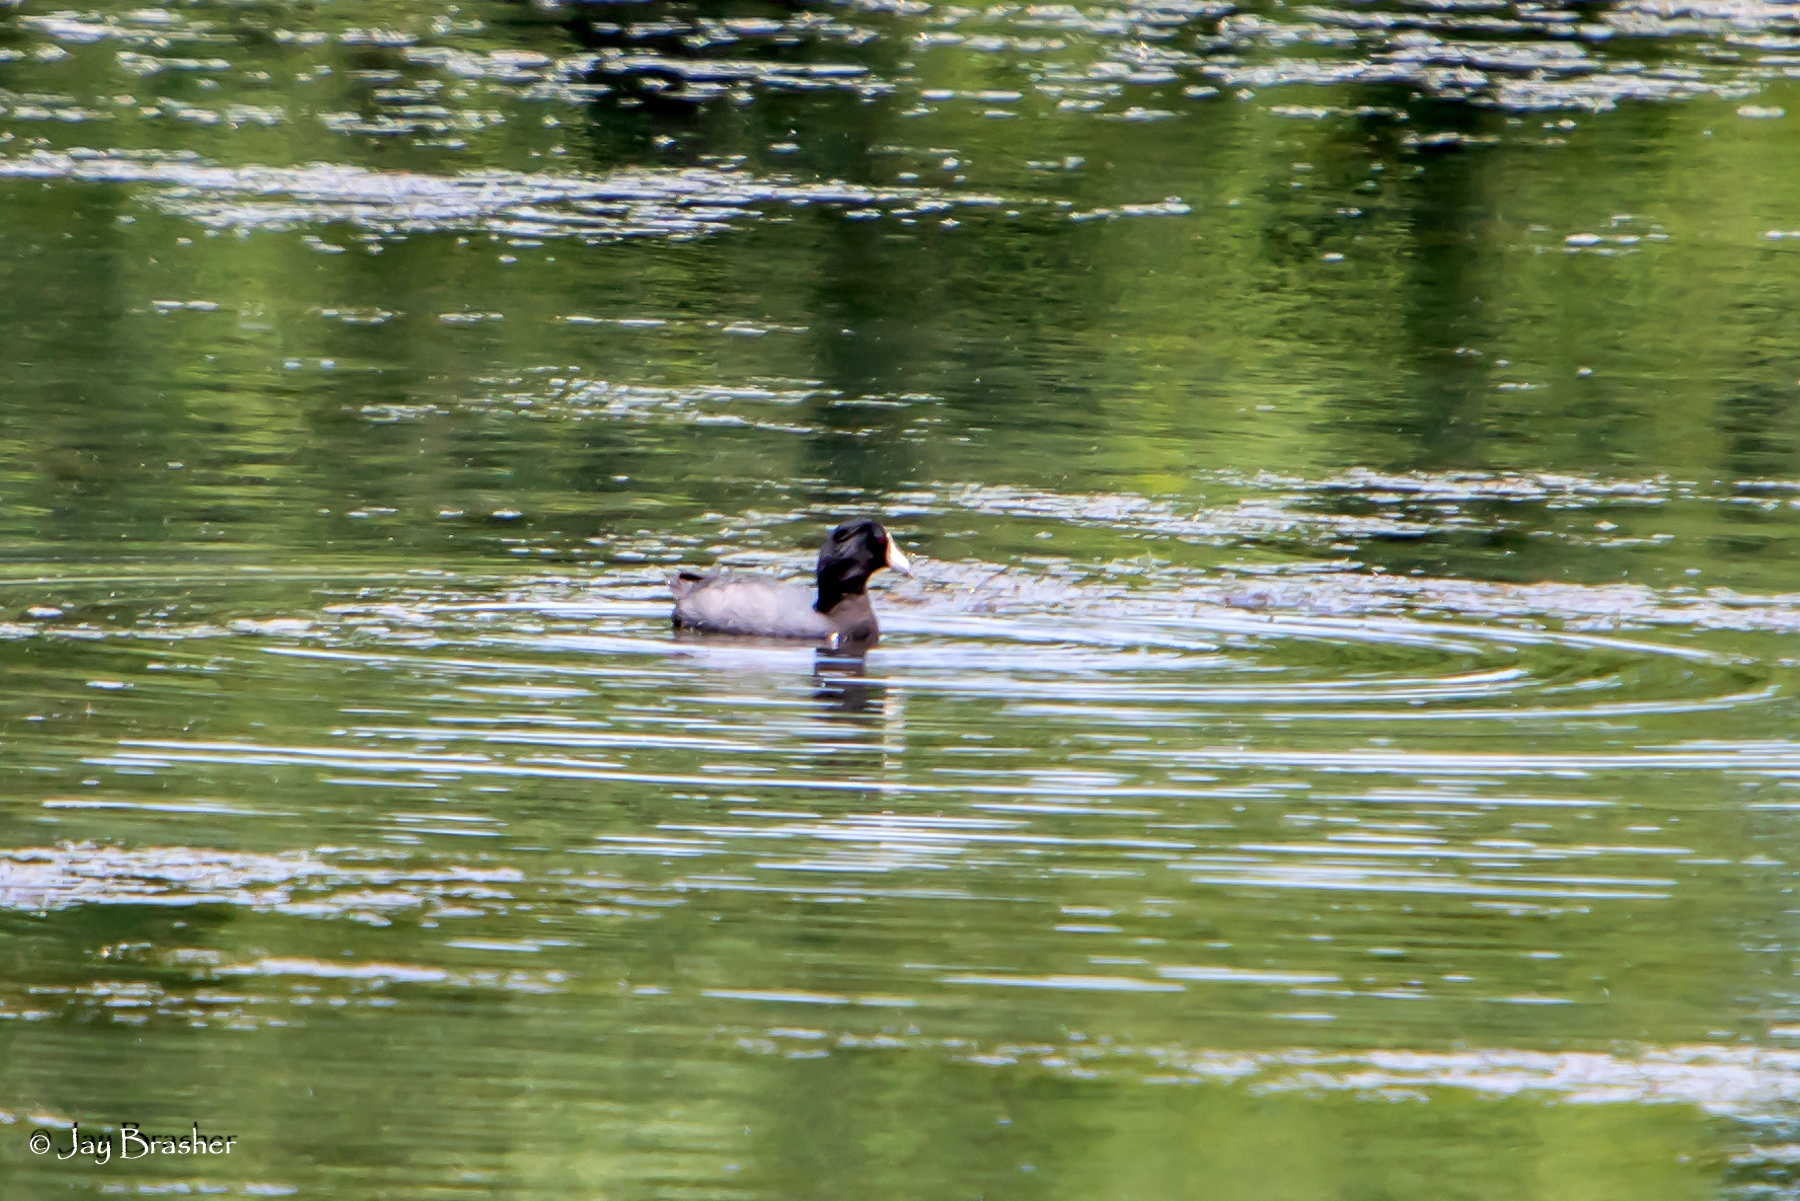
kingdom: Animalia
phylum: Chordata
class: Aves
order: Gruiformes
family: Rallidae
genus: Fulica
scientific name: Fulica americana
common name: American coot
